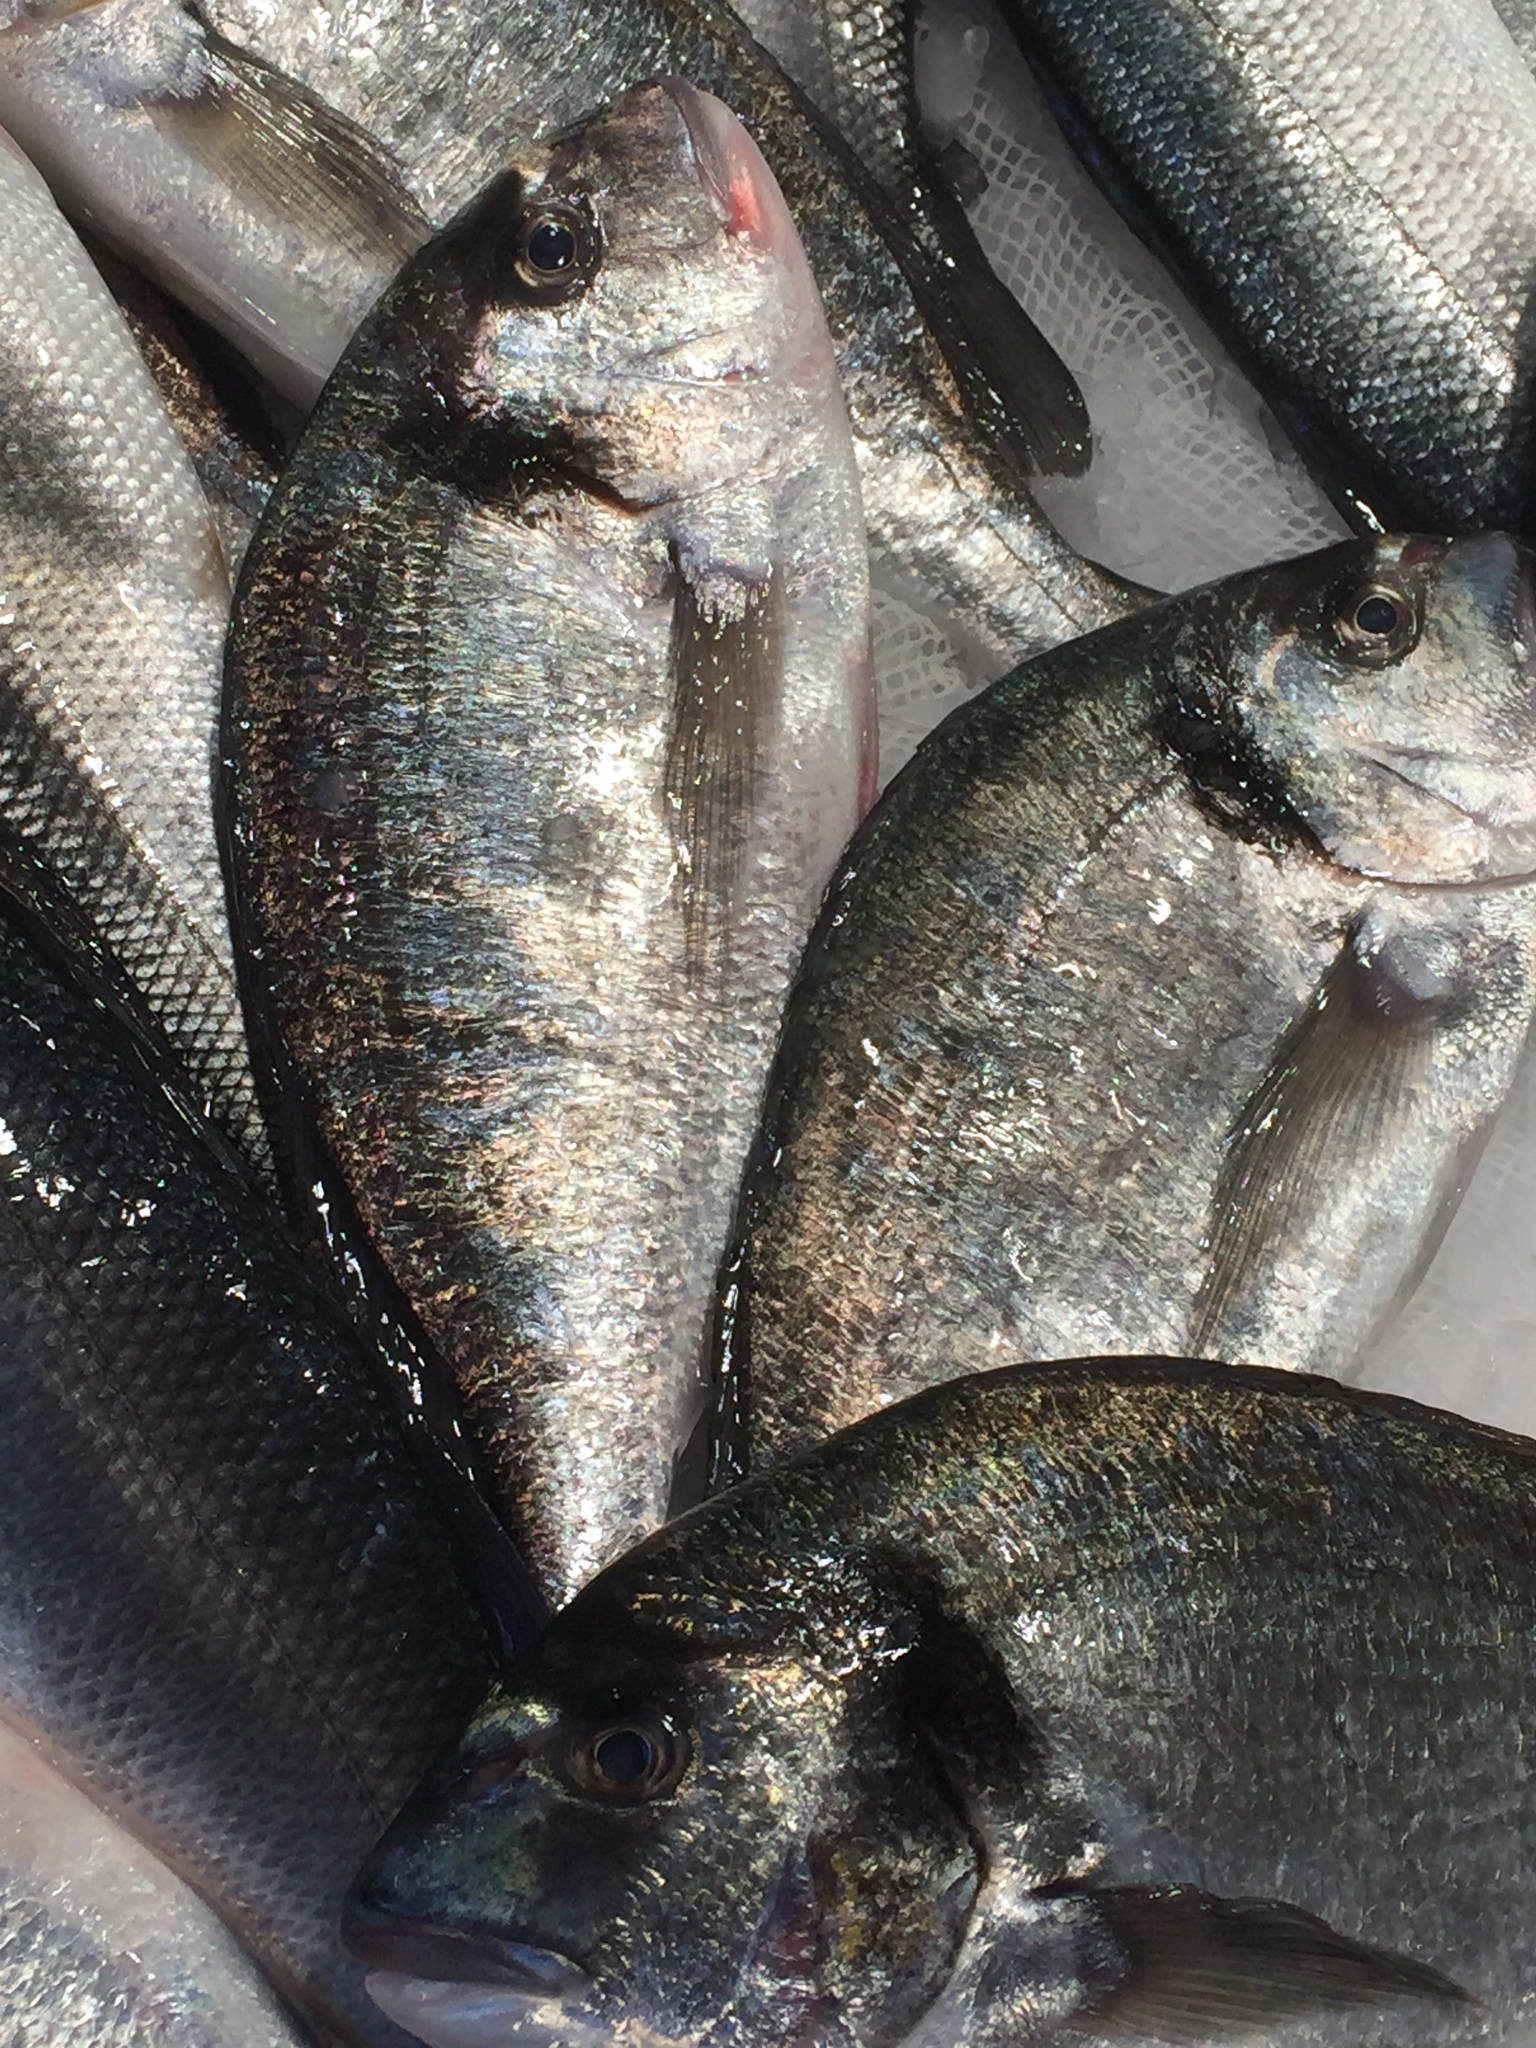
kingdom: Animalia
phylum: Chordata
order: Perciformes
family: Sparidae
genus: Sparus
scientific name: Sparus aurata
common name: Gilthead
